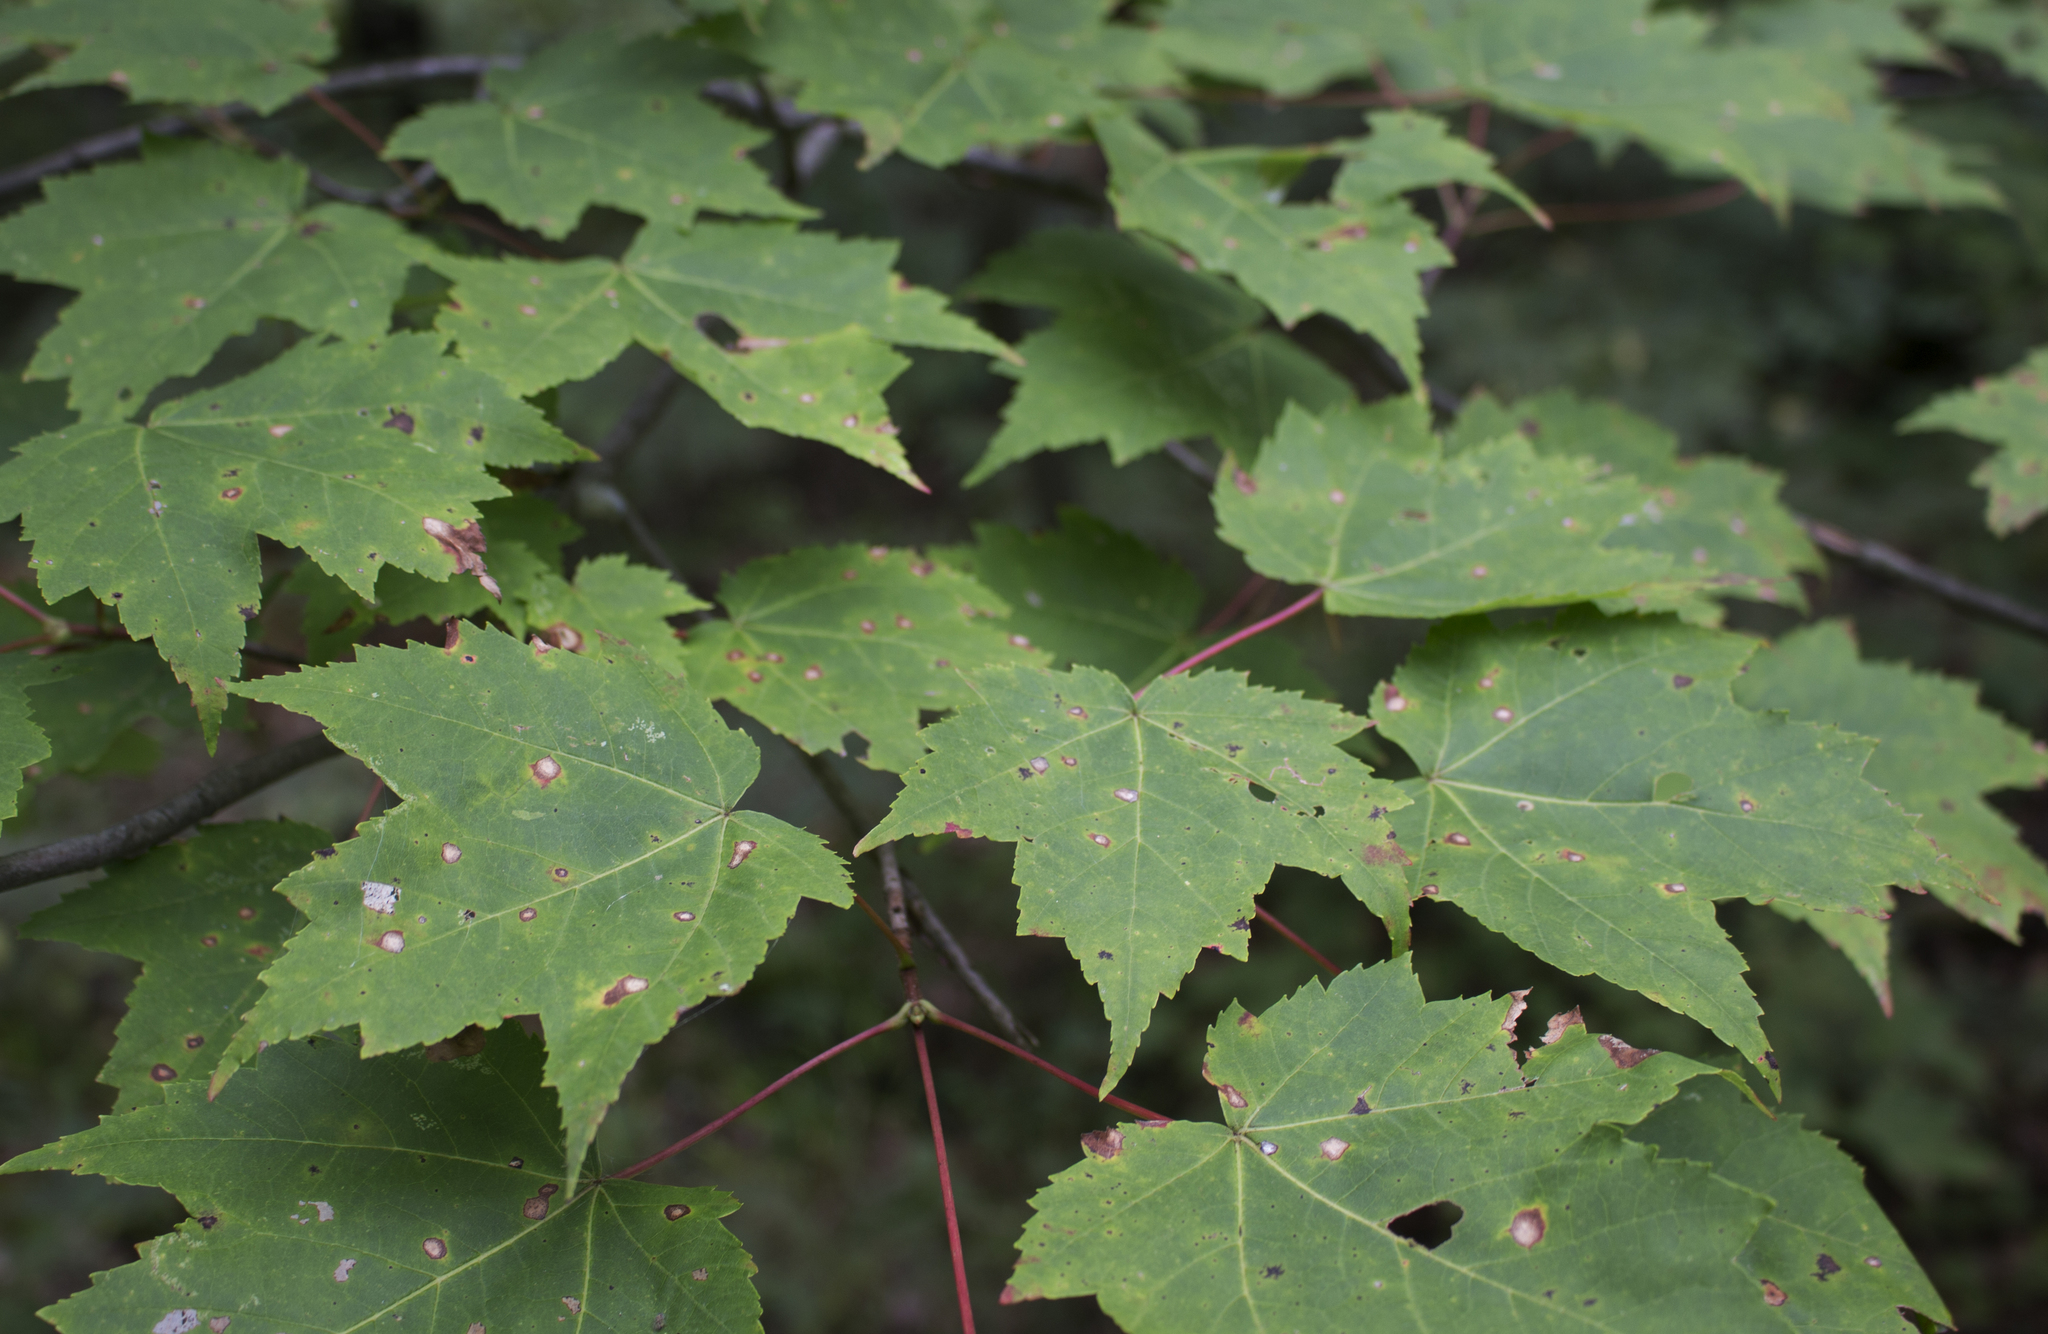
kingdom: Plantae
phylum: Tracheophyta
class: Magnoliopsida
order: Sapindales
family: Sapindaceae
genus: Acer
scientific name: Acer rubrum
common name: Red maple
